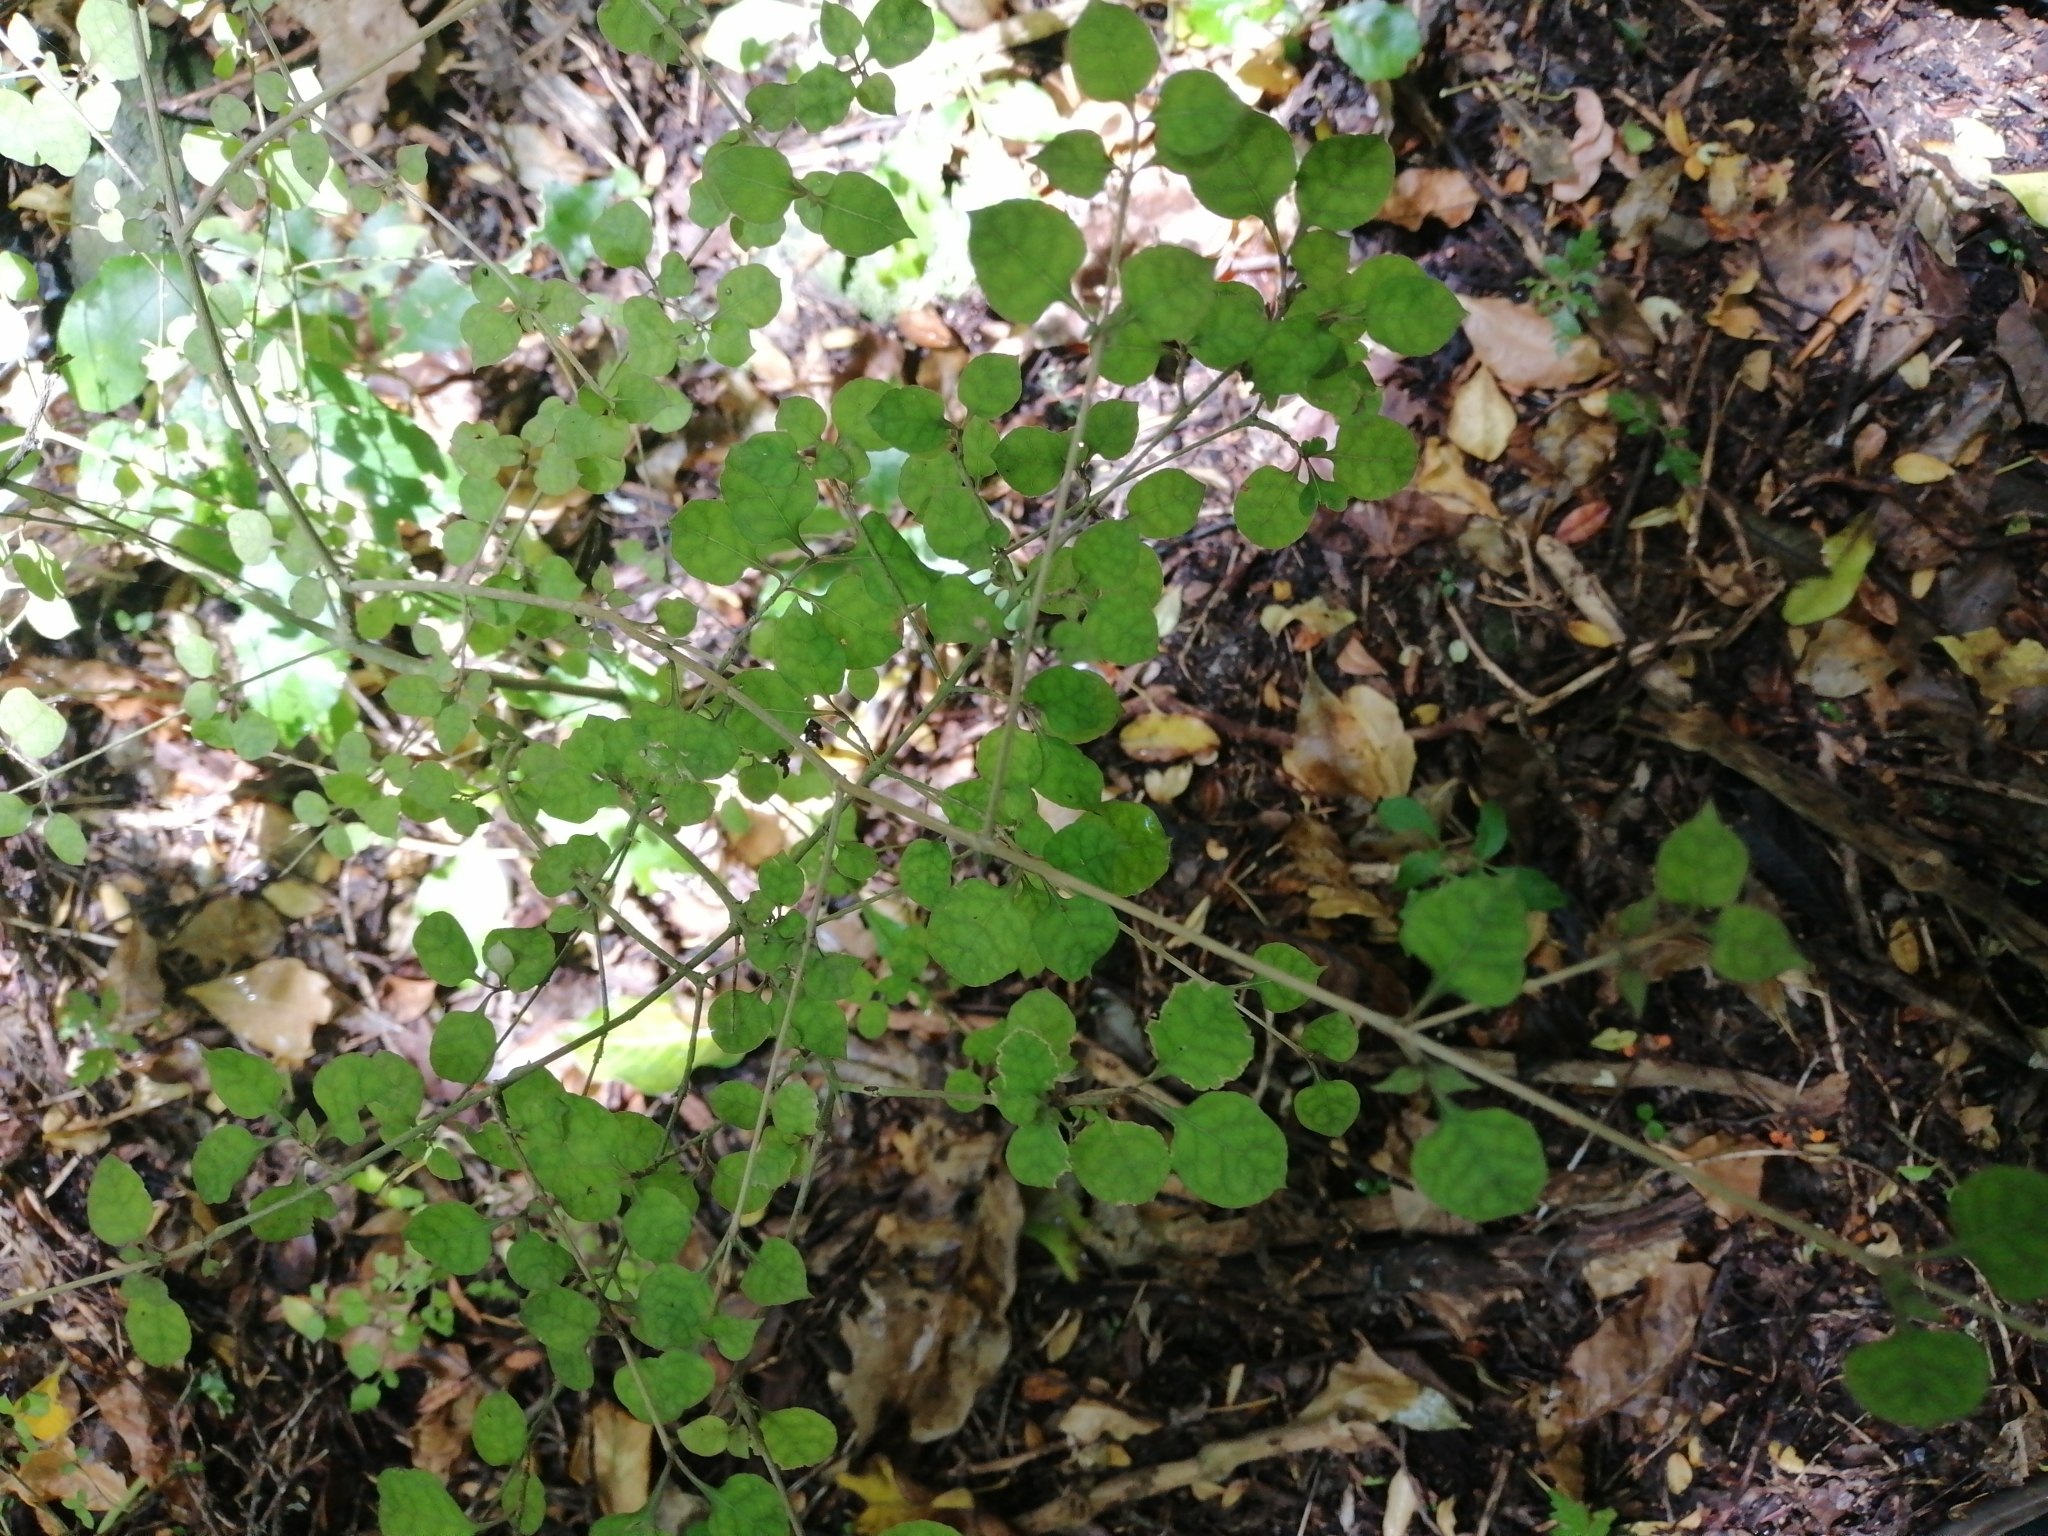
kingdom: Plantae
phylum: Tracheophyta
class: Magnoliopsida
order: Gentianales
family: Rubiaceae
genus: Coprosma
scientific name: Coprosma areolata
